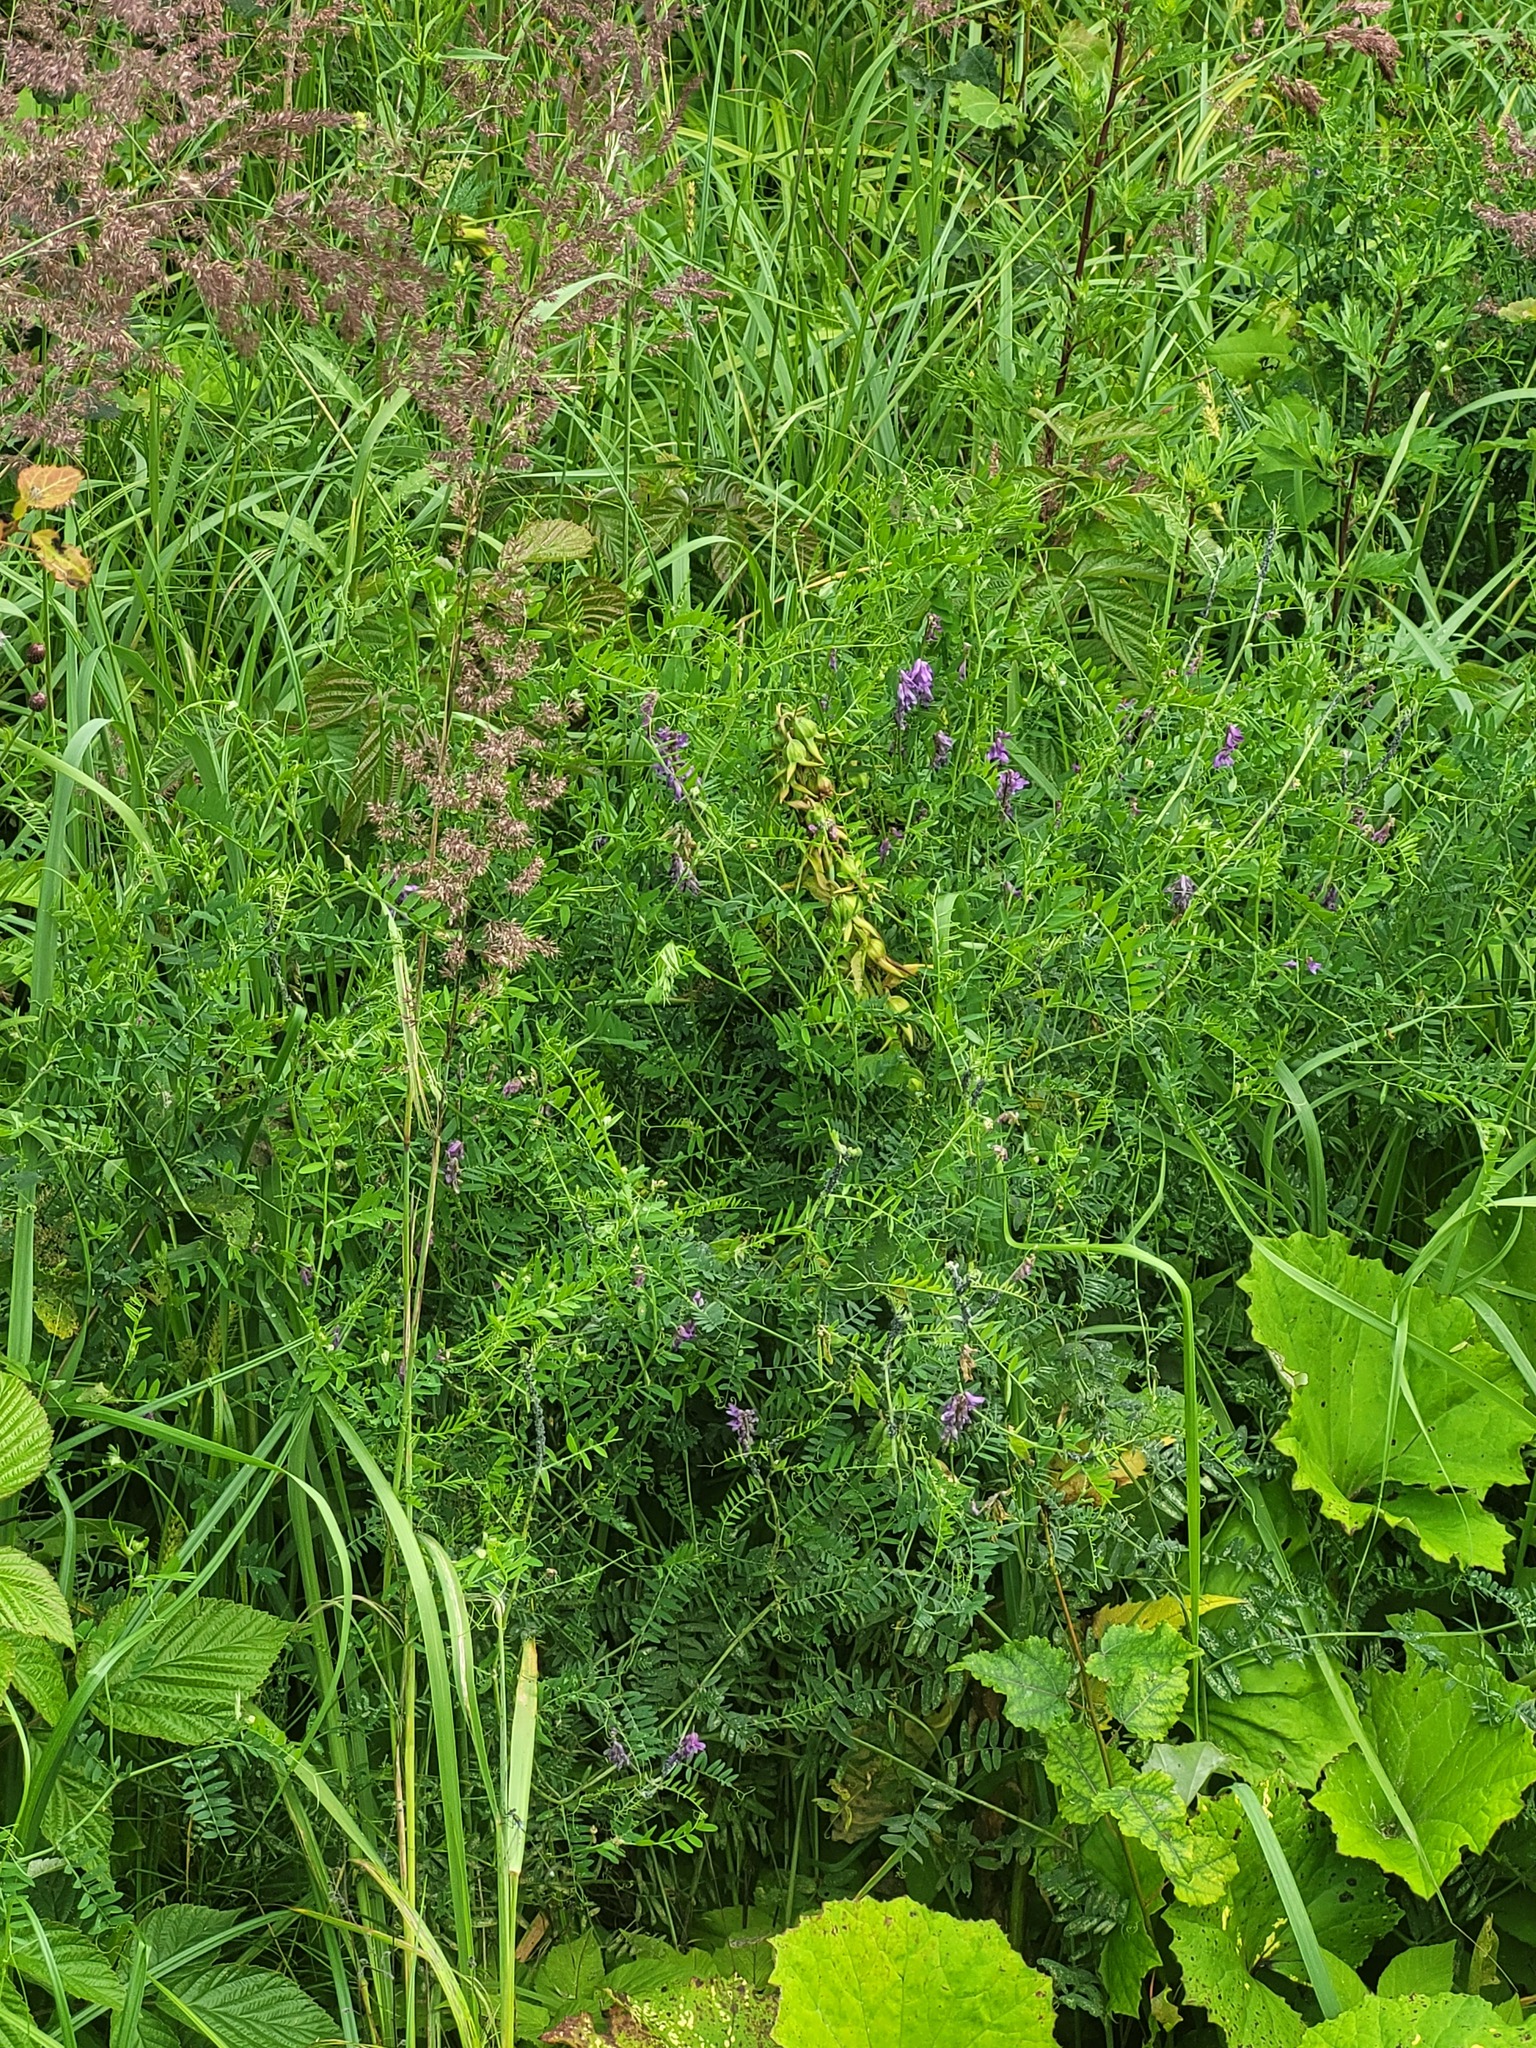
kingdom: Plantae
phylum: Tracheophyta
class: Magnoliopsida
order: Fabales
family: Fabaceae
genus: Vicia
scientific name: Vicia cracca
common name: Bird vetch
